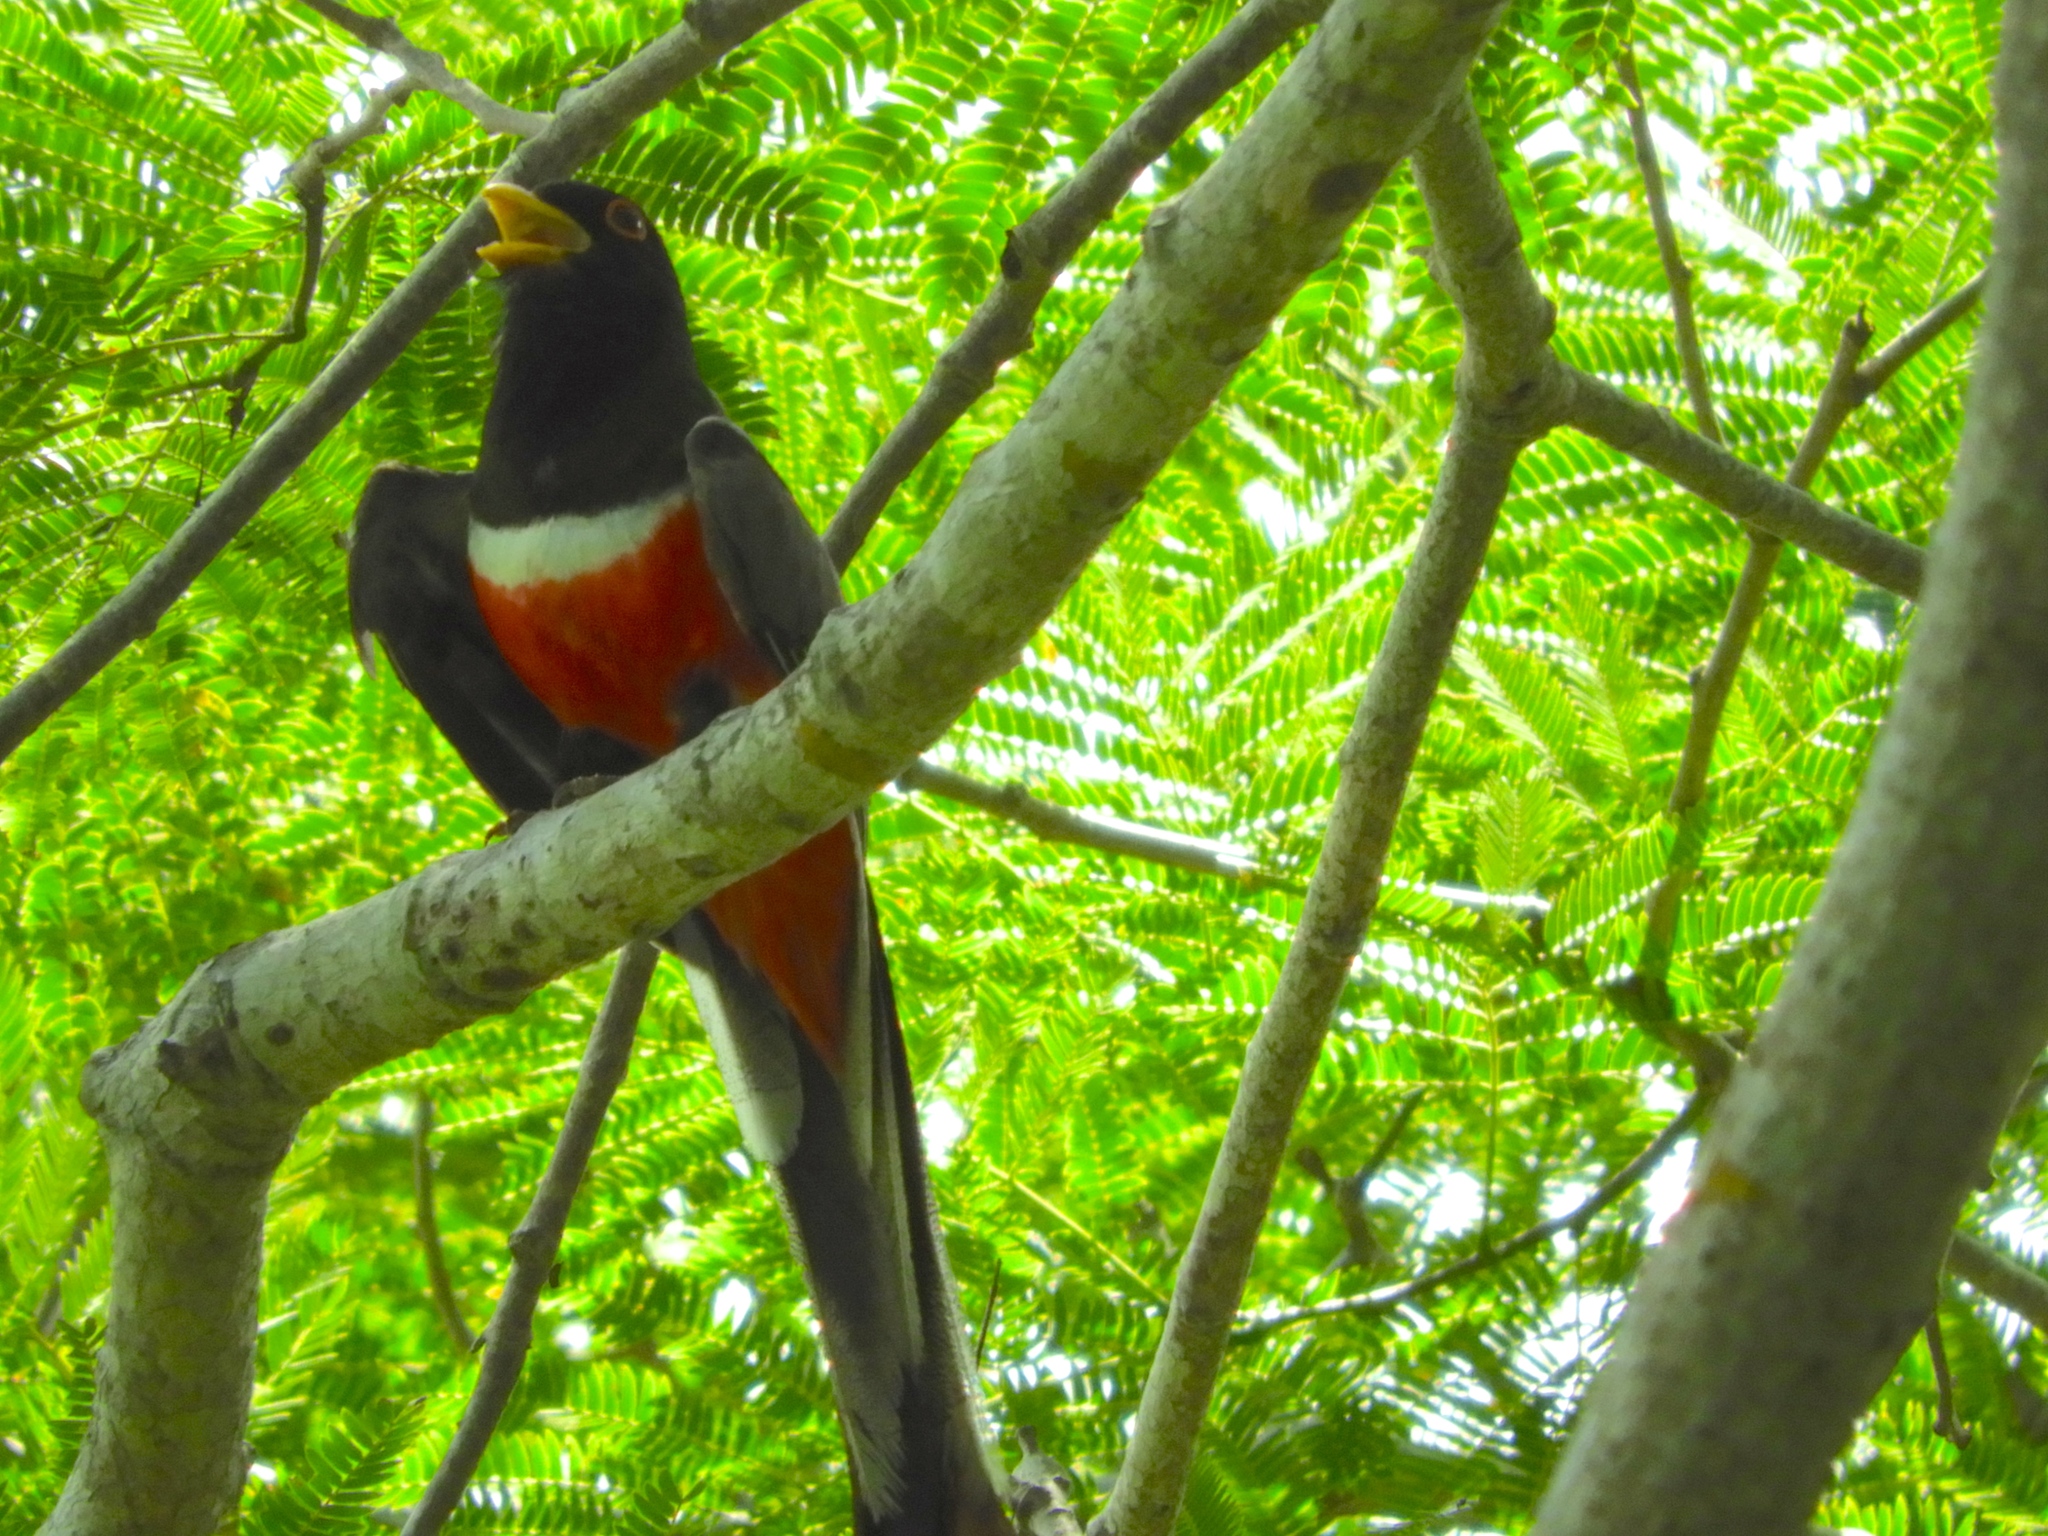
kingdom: Animalia
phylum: Chordata
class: Aves
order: Trogoniformes
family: Trogonidae
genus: Trogon
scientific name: Trogon elegans
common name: Elegant trogon
